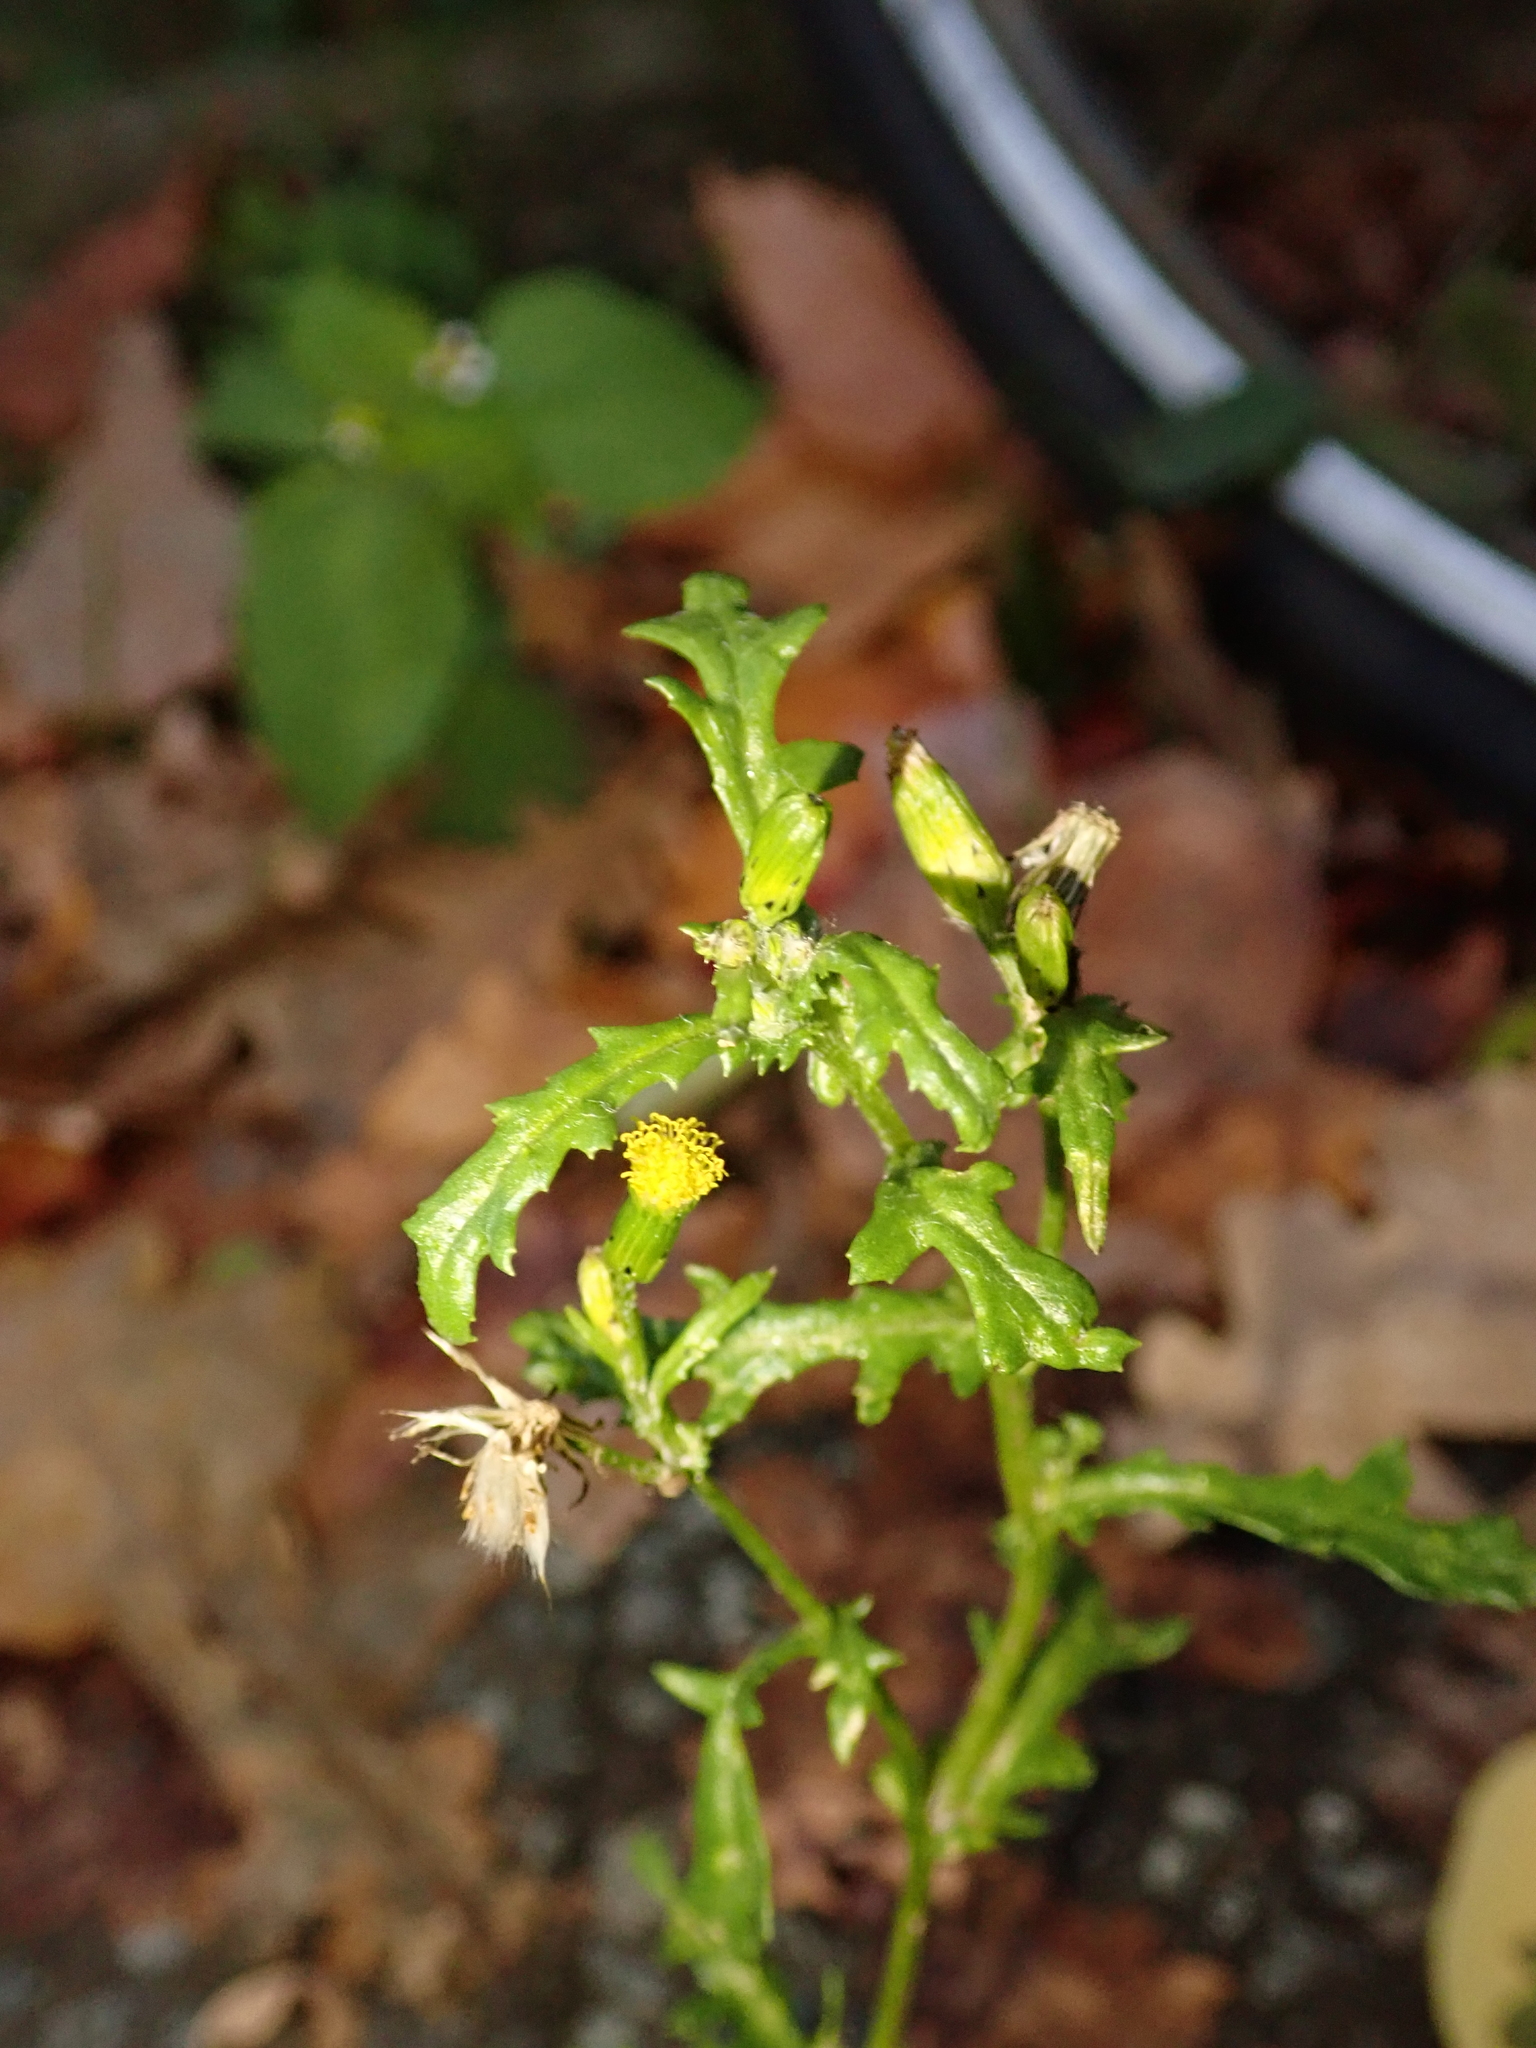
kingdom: Plantae
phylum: Tracheophyta
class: Magnoliopsida
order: Asterales
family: Asteraceae
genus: Senecio
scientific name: Senecio vulgaris
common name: Old-man-in-the-spring
